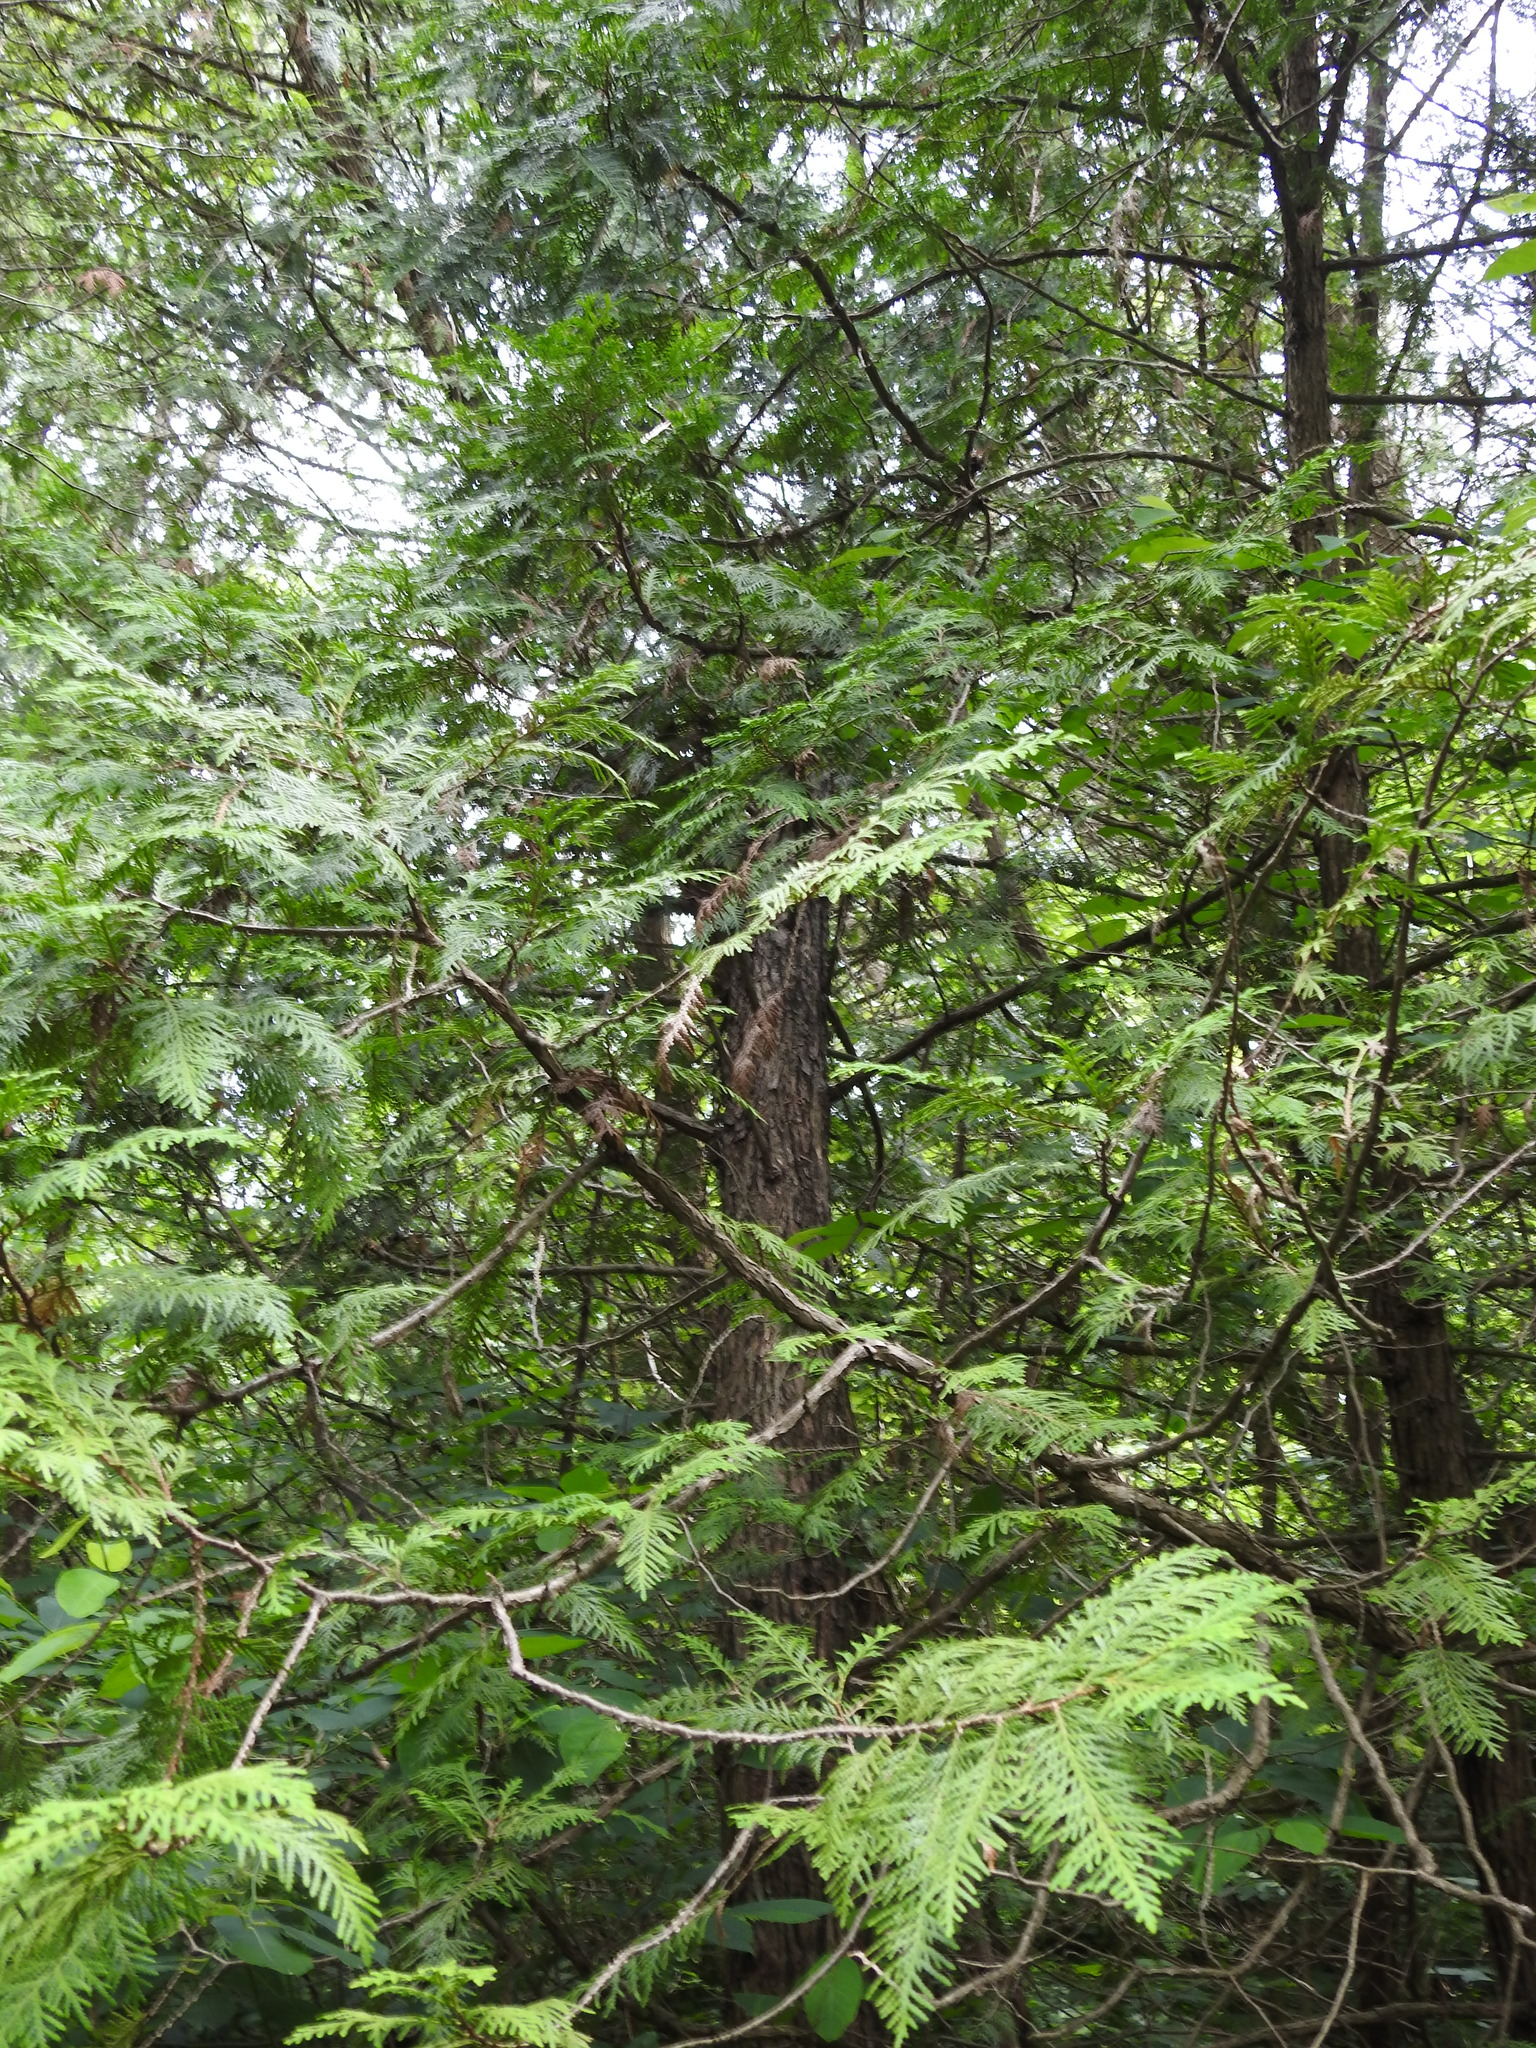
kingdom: Plantae
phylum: Tracheophyta
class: Pinopsida
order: Pinales
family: Cupressaceae
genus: Thuja
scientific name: Thuja occidentalis
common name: Northern white-cedar
